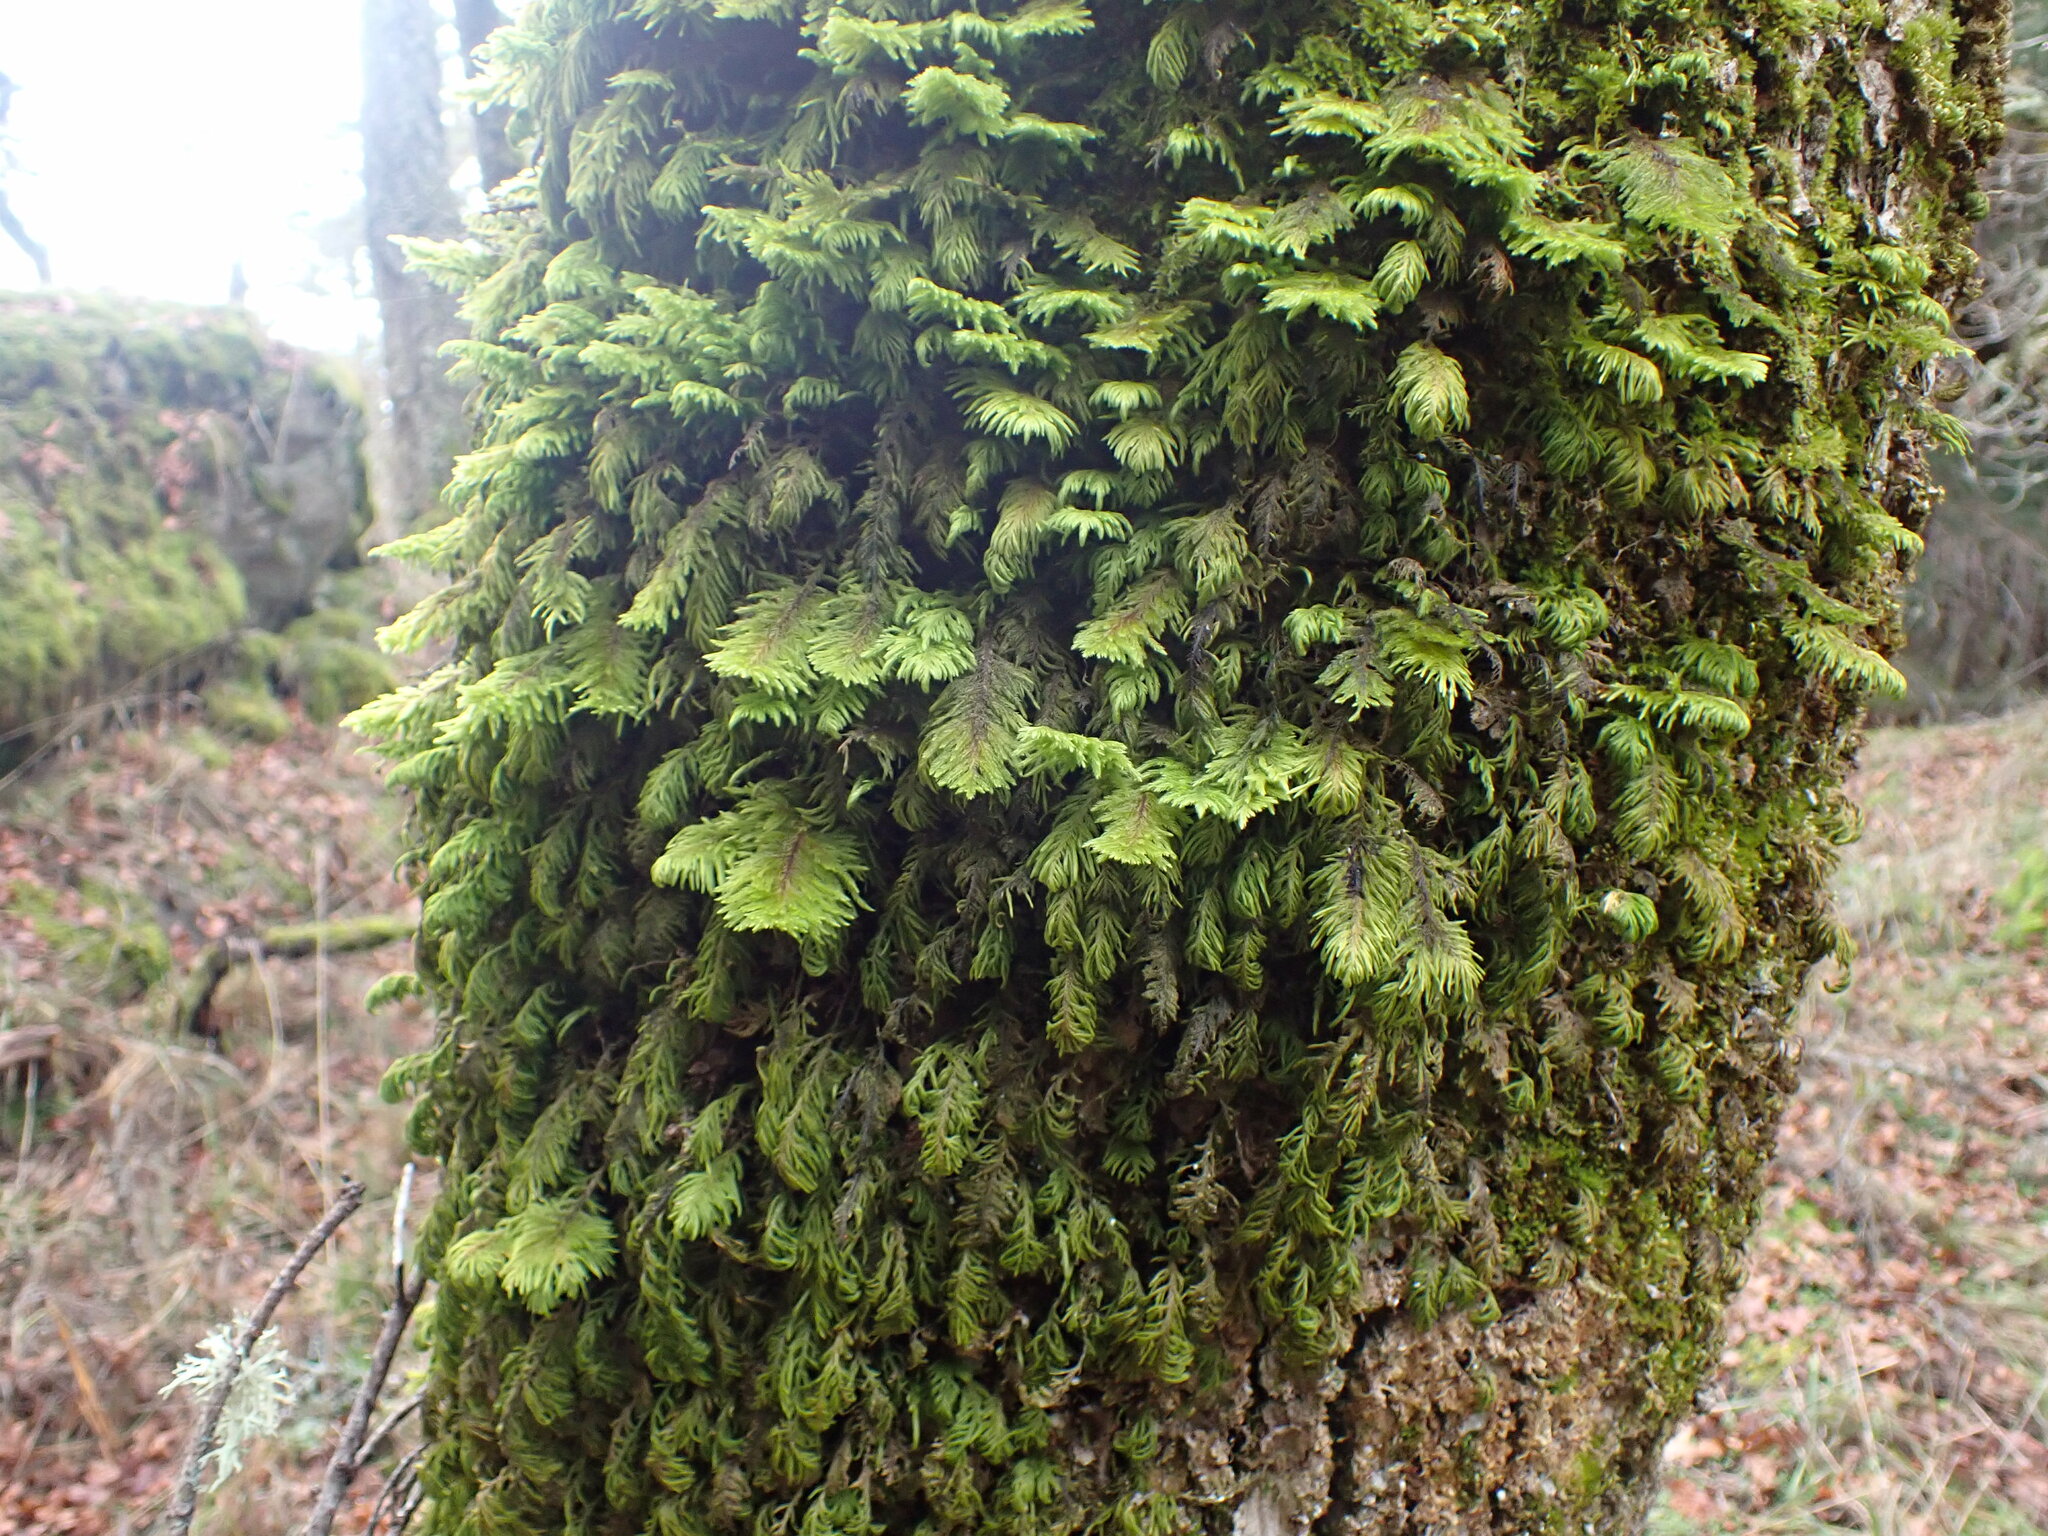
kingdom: Plantae
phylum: Bryophyta
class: Bryopsida
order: Hypnales
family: Cryphaeaceae
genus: Dendroalsia
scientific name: Dendroalsia abietina
